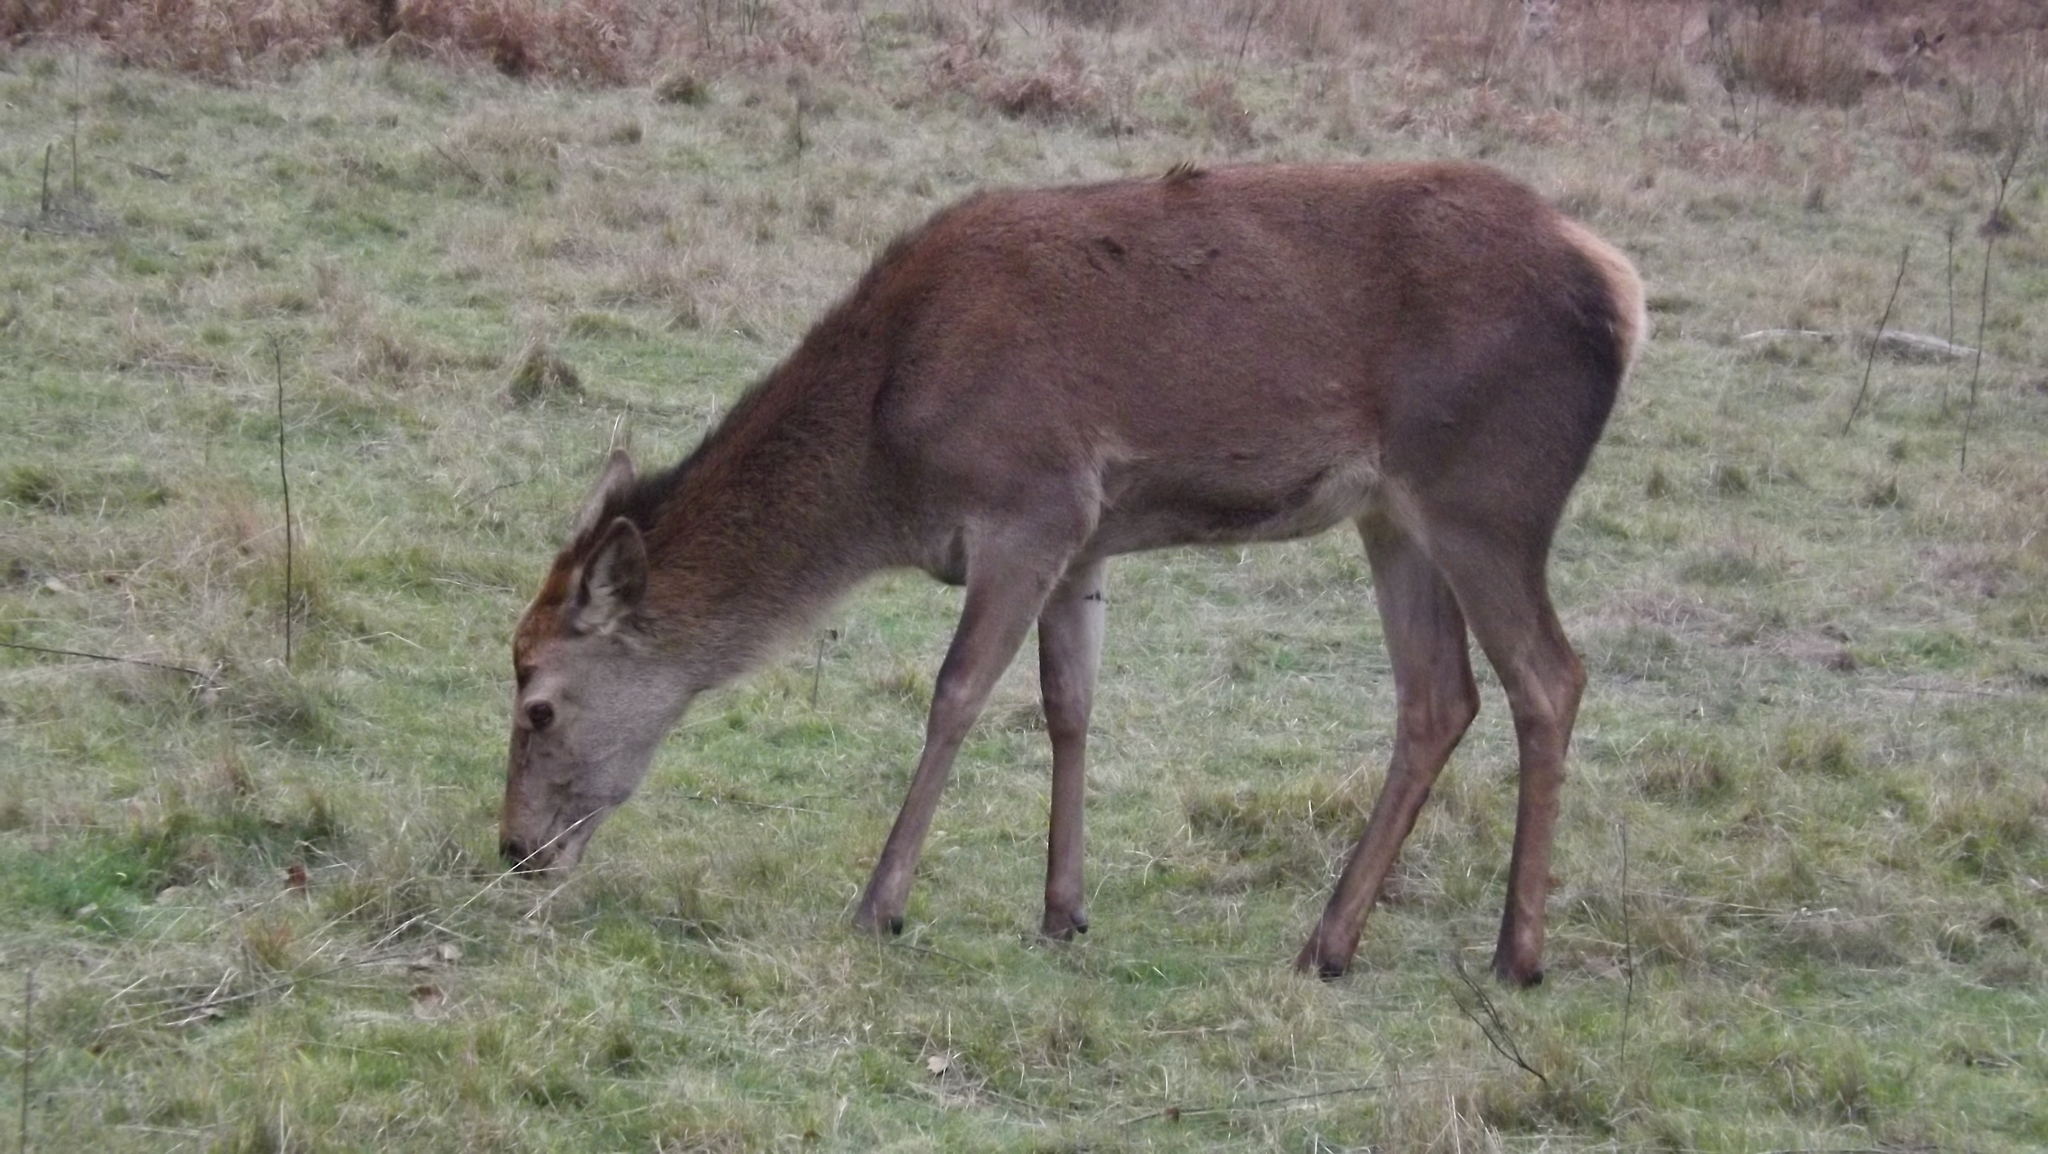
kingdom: Animalia
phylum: Chordata
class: Mammalia
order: Artiodactyla
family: Cervidae
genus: Cervus
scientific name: Cervus elaphus
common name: Red deer
